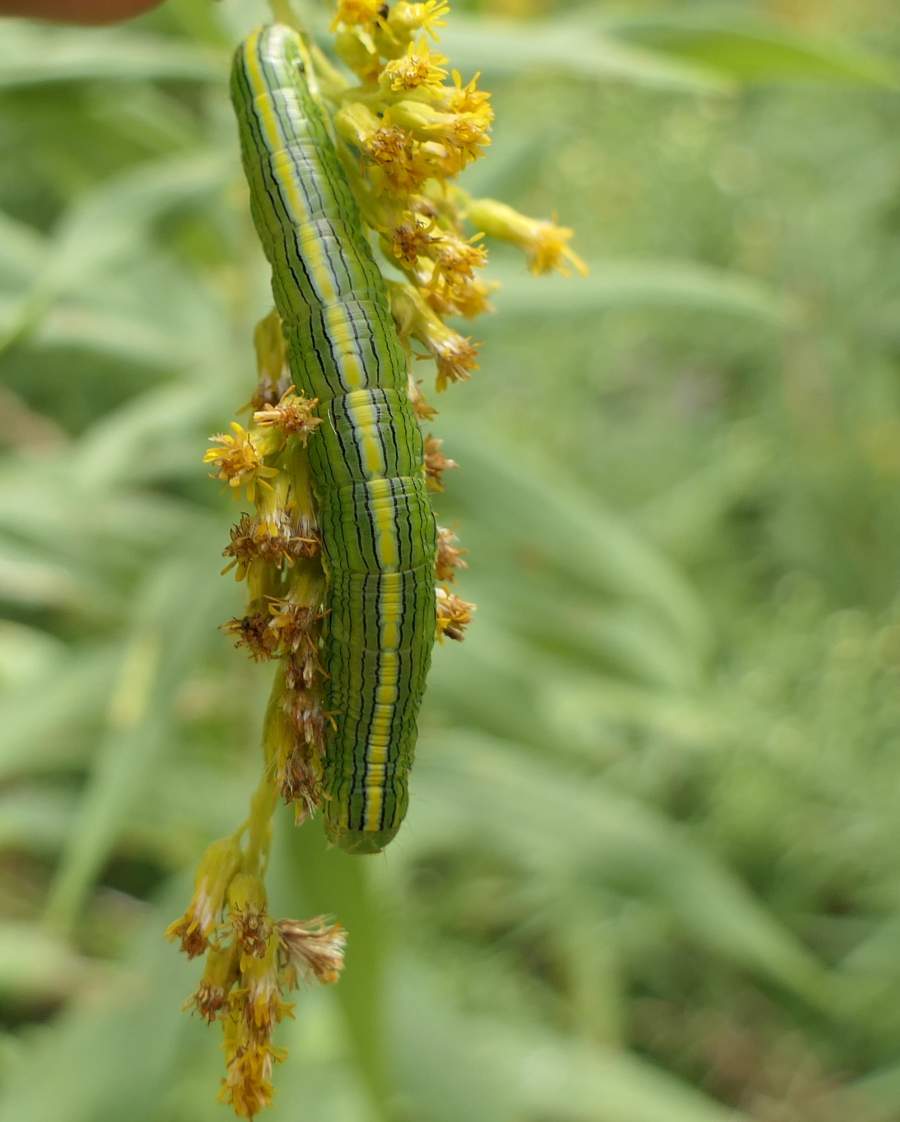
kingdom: Animalia
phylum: Arthropoda
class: Insecta
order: Lepidoptera
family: Noctuidae
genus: Cucullia
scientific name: Cucullia asteroides
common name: Asteroid moth
